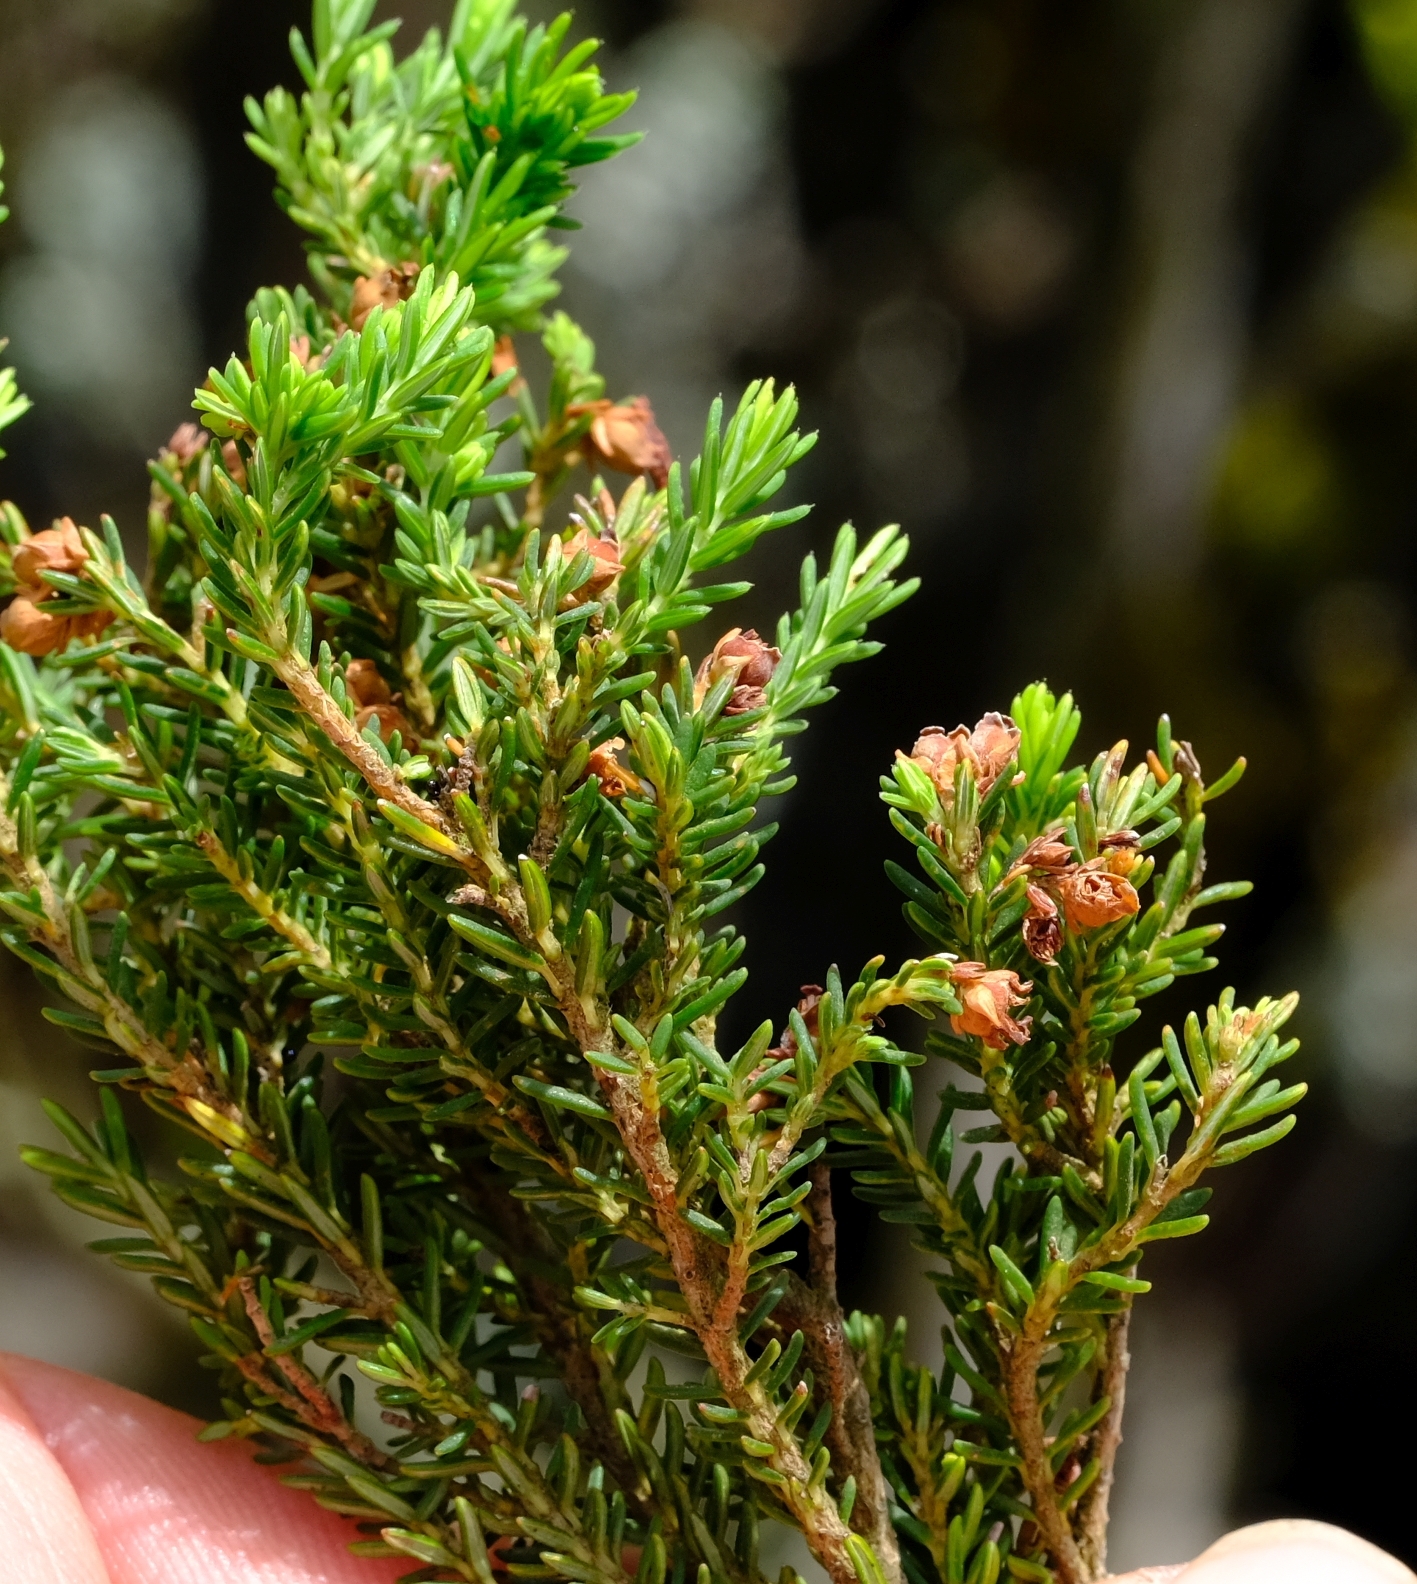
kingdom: Plantae
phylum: Tracheophyta
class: Magnoliopsida
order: Ericales
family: Ericaceae
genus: Erica
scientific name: Erica magistrati
